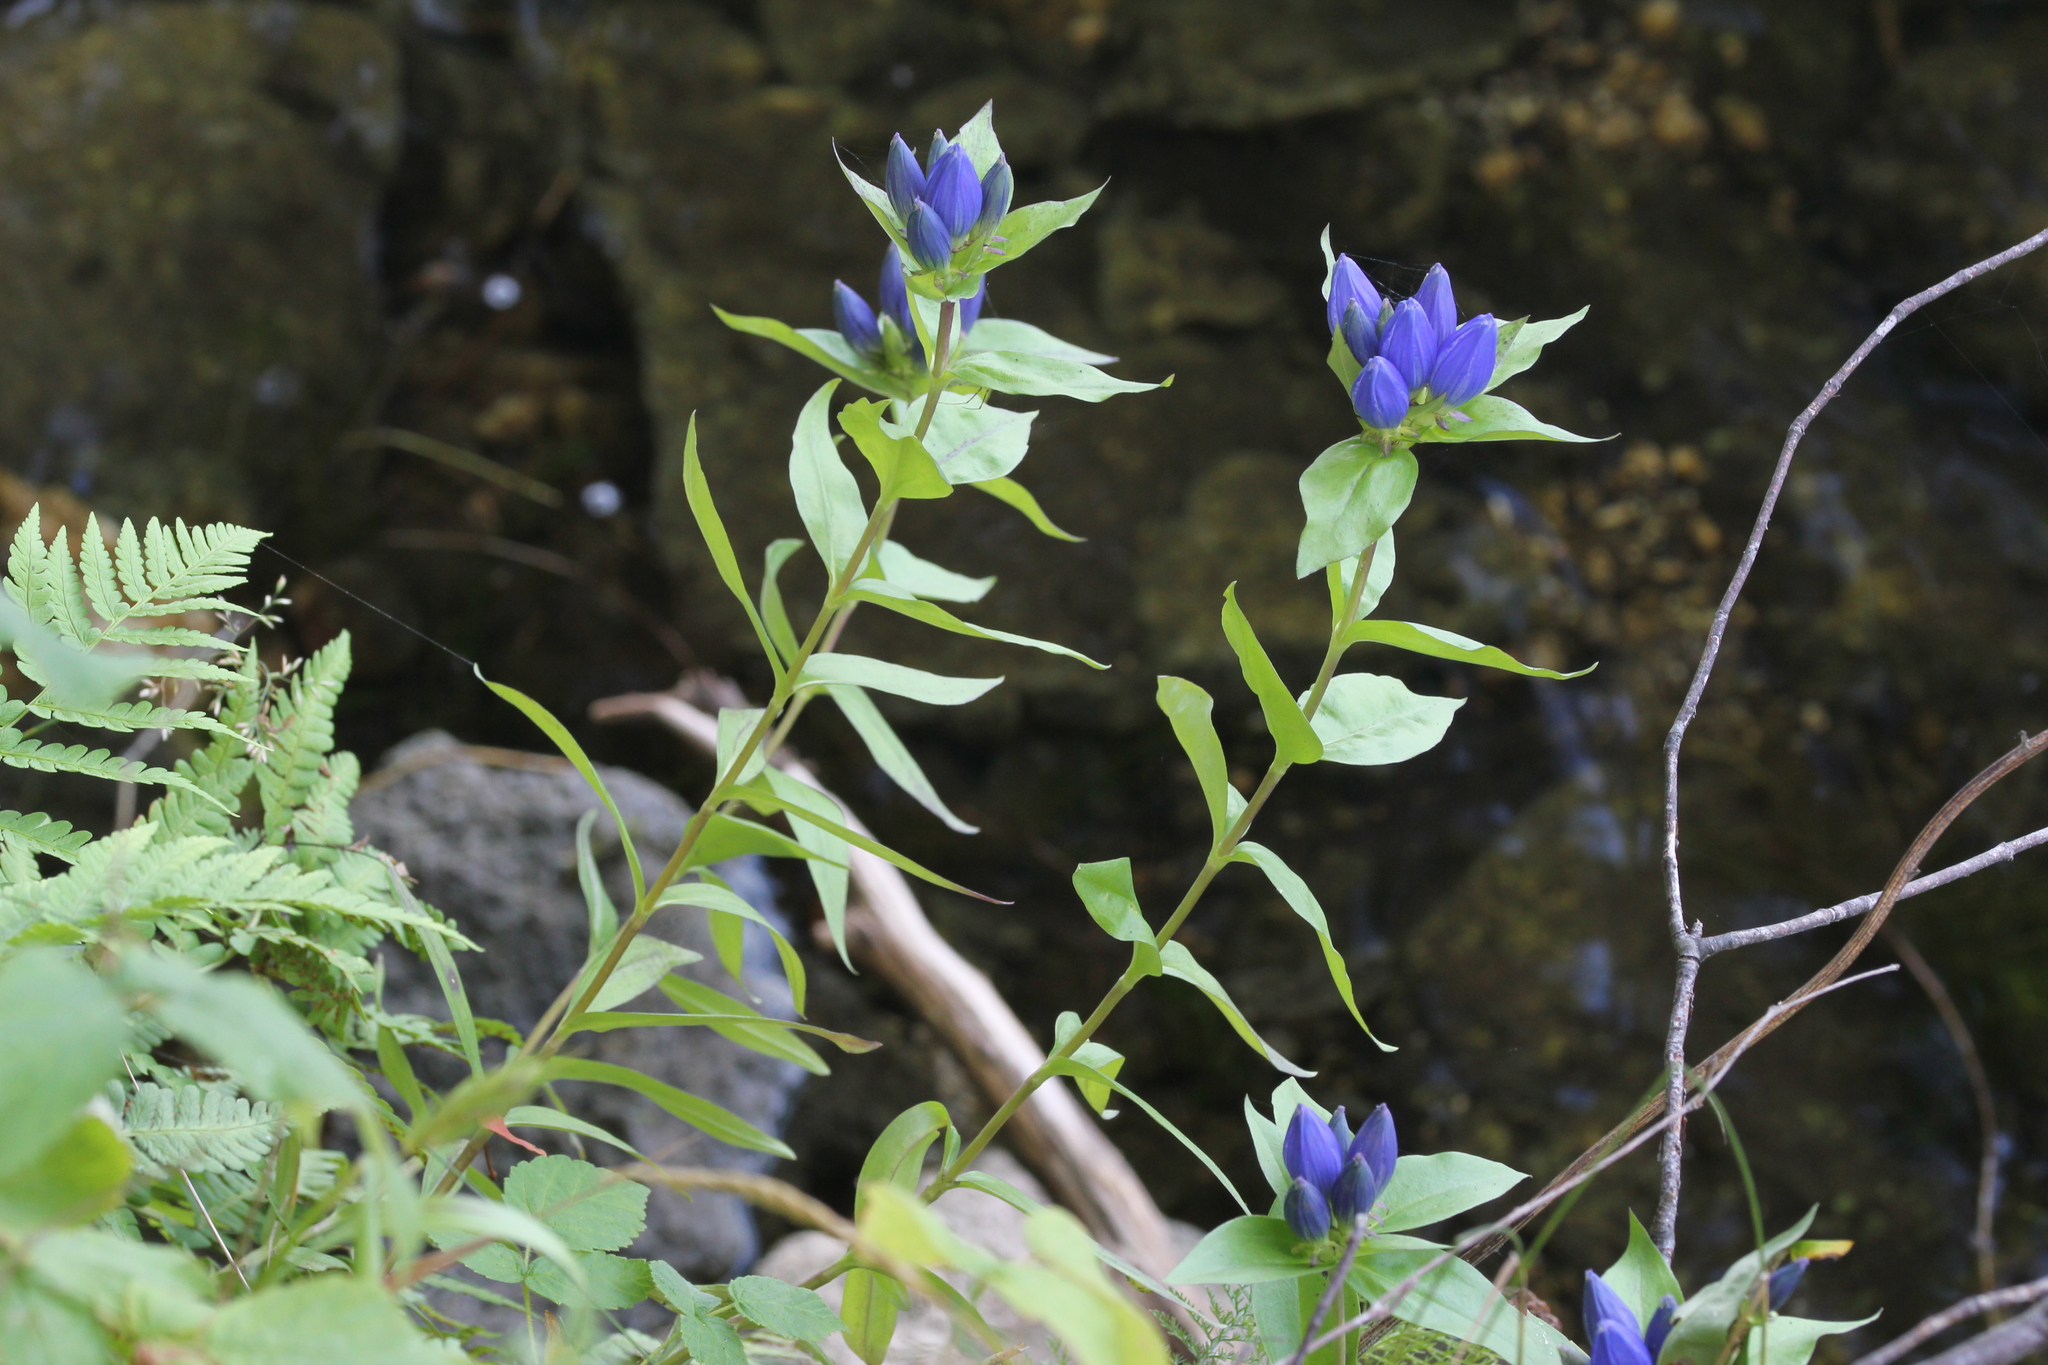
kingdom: Plantae
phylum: Tracheophyta
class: Magnoliopsida
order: Gentianales
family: Gentianaceae
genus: Gentiana
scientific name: Gentiana andrewsii
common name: Bottle gentian
